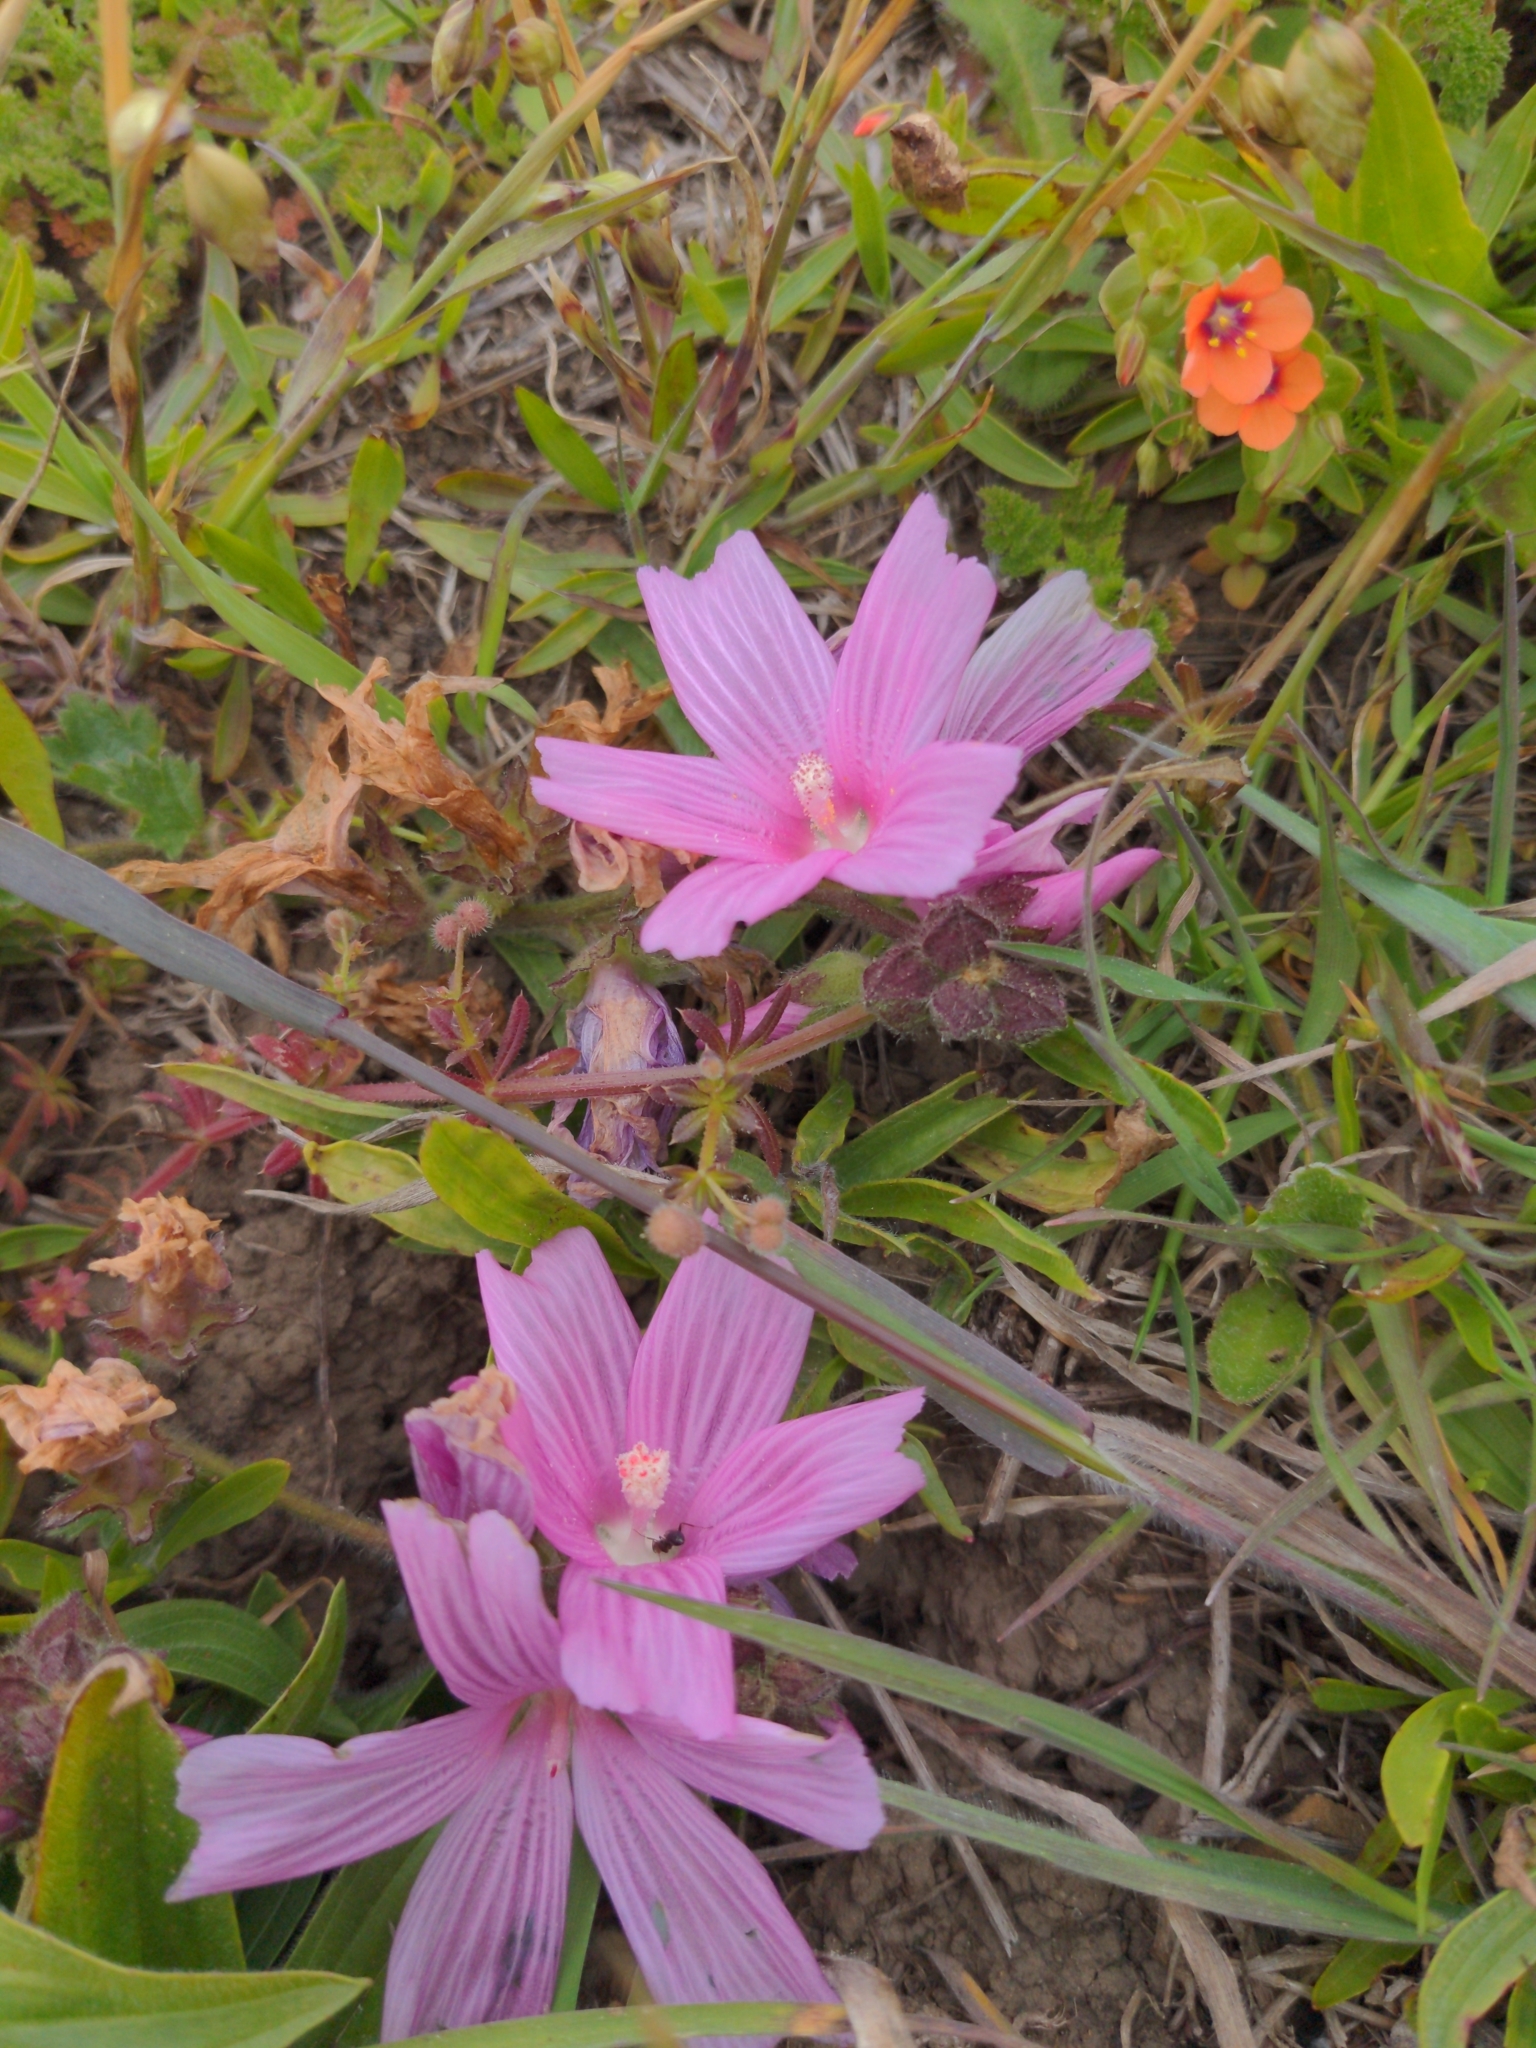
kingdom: Plantae
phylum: Tracheophyta
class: Magnoliopsida
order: Malvales
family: Malvaceae
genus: Sidalcea
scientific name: Sidalcea malviflora
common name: Greek mallow
